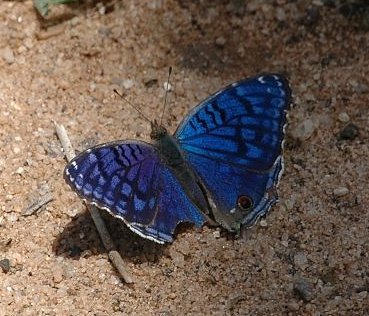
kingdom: Animalia
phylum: Arthropoda
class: Insecta
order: Lepidoptera
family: Nymphalidae
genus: Junonia
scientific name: Junonia rhadama
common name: Royal blue pansy
